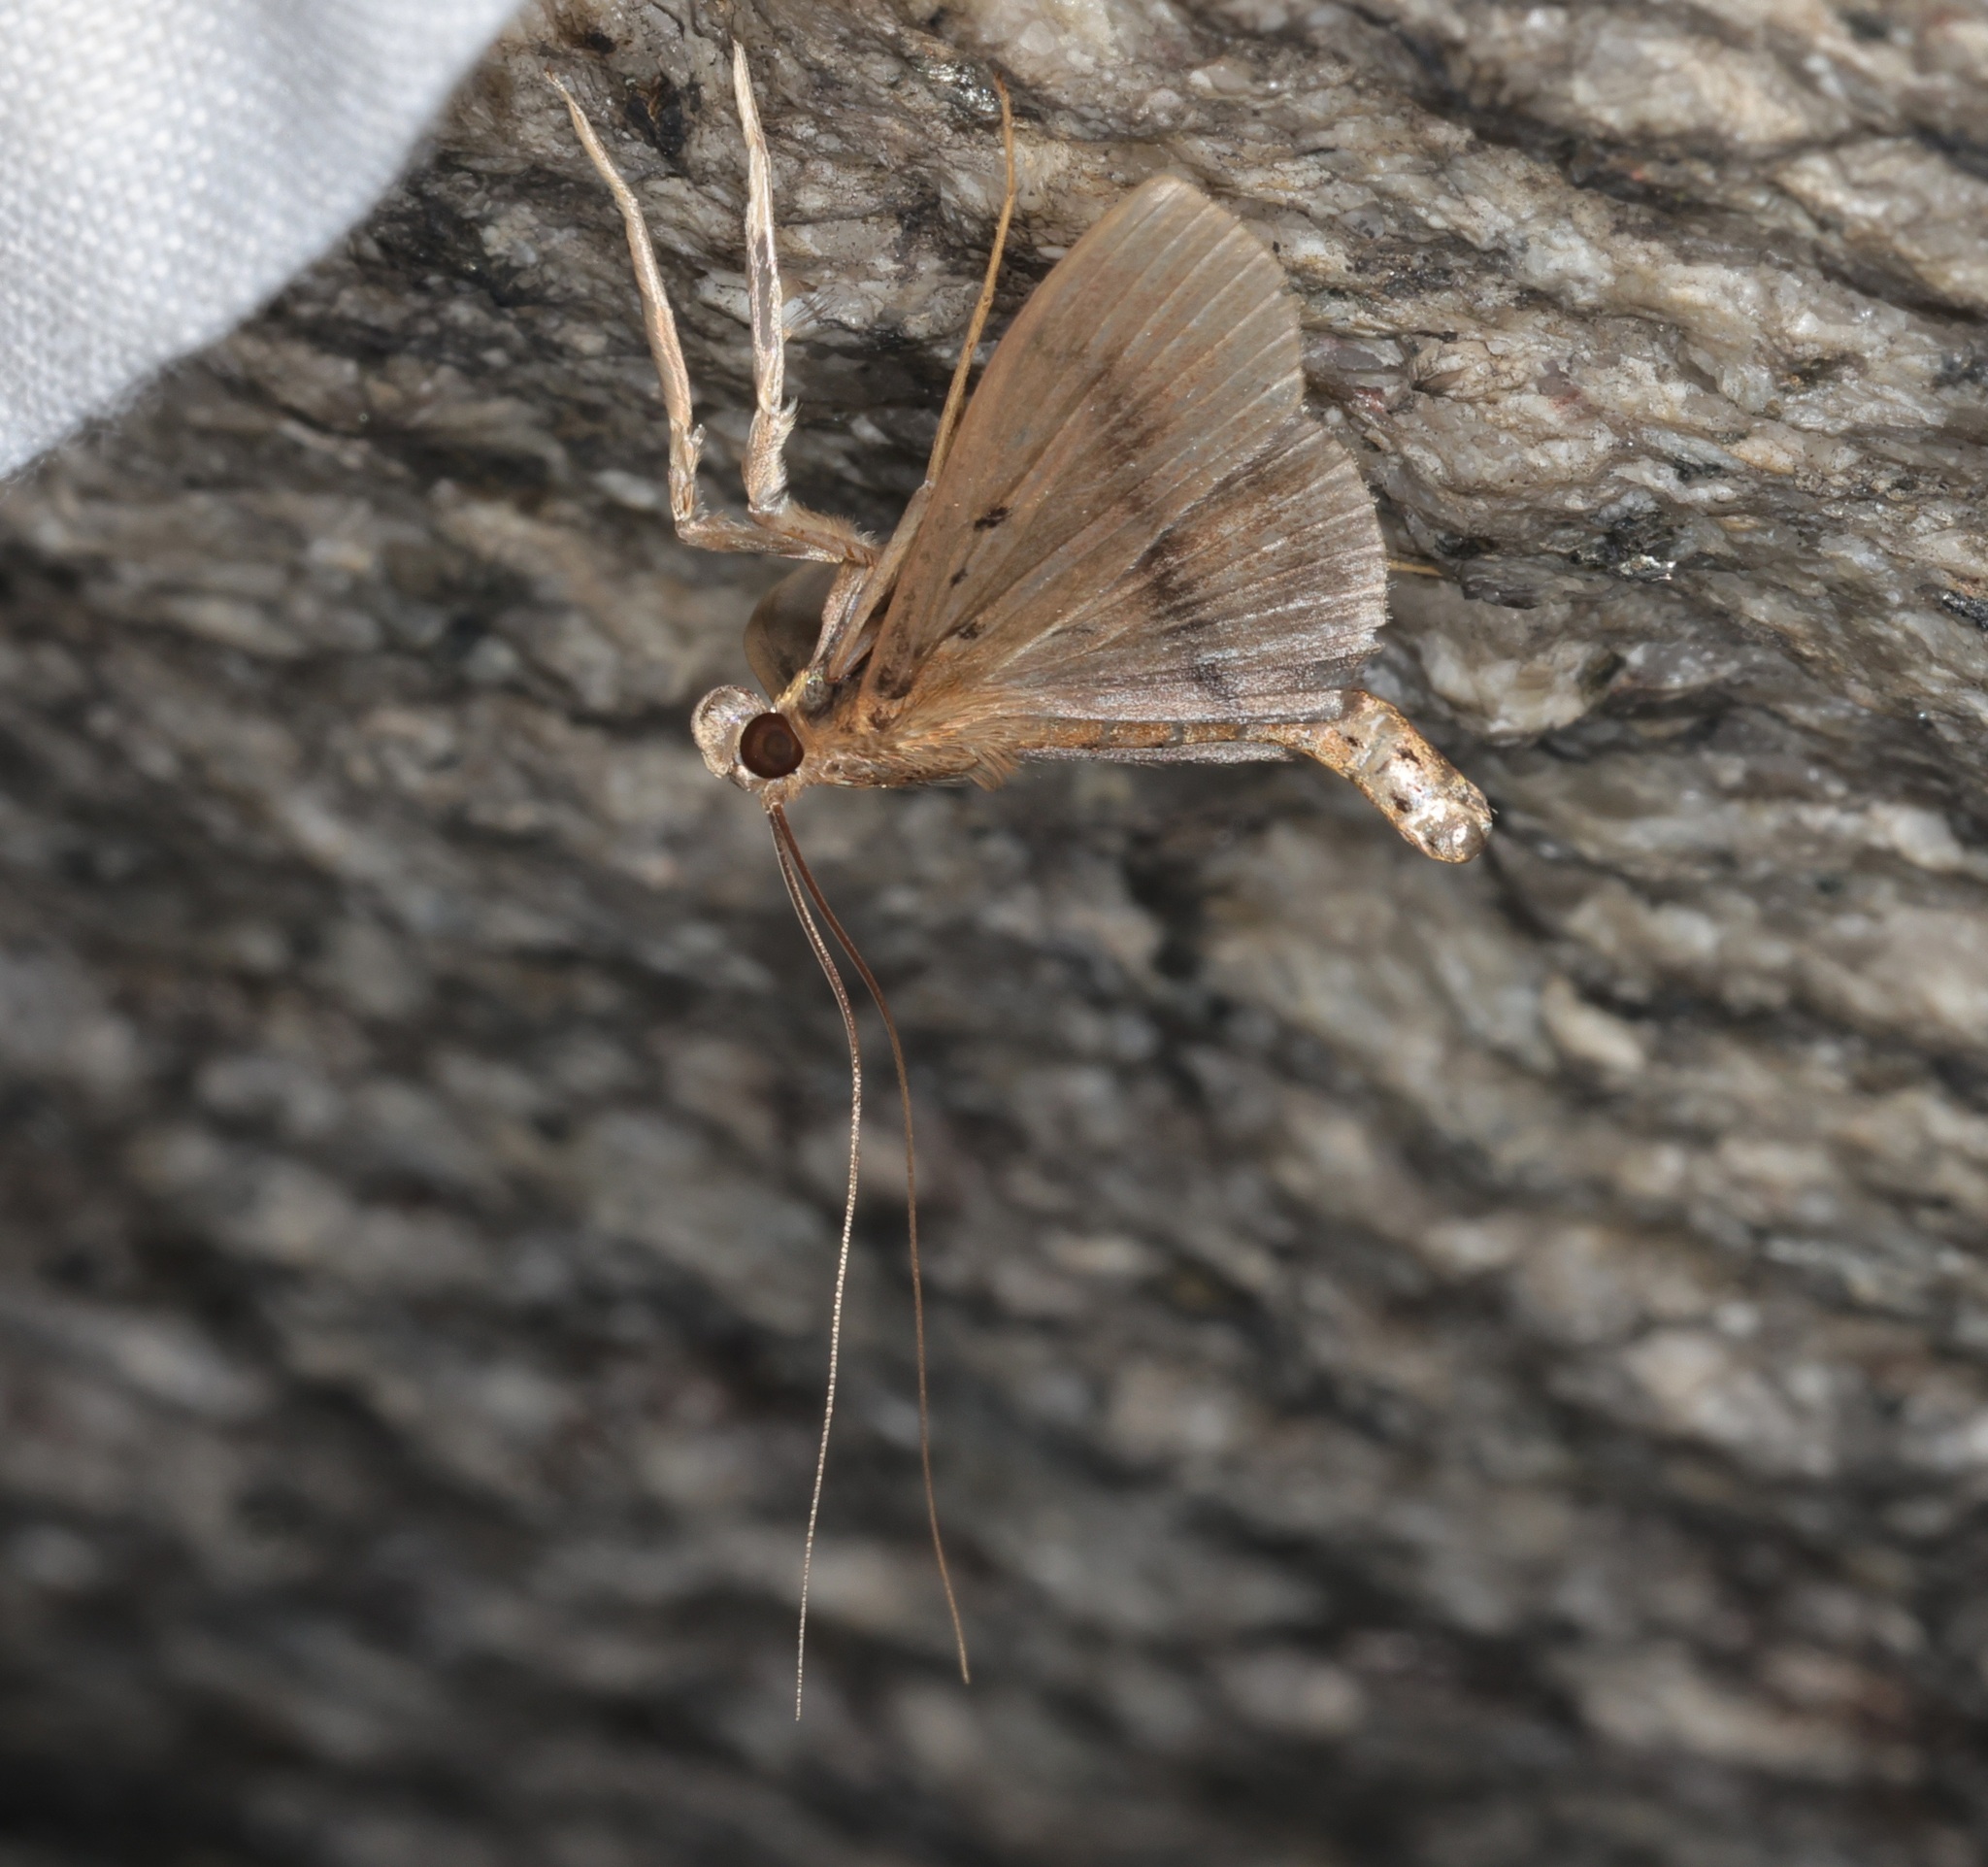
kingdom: Animalia
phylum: Arthropoda
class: Insecta
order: Lepidoptera
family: Crambidae
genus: Filodes
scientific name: Filodes fulvidorsalis
